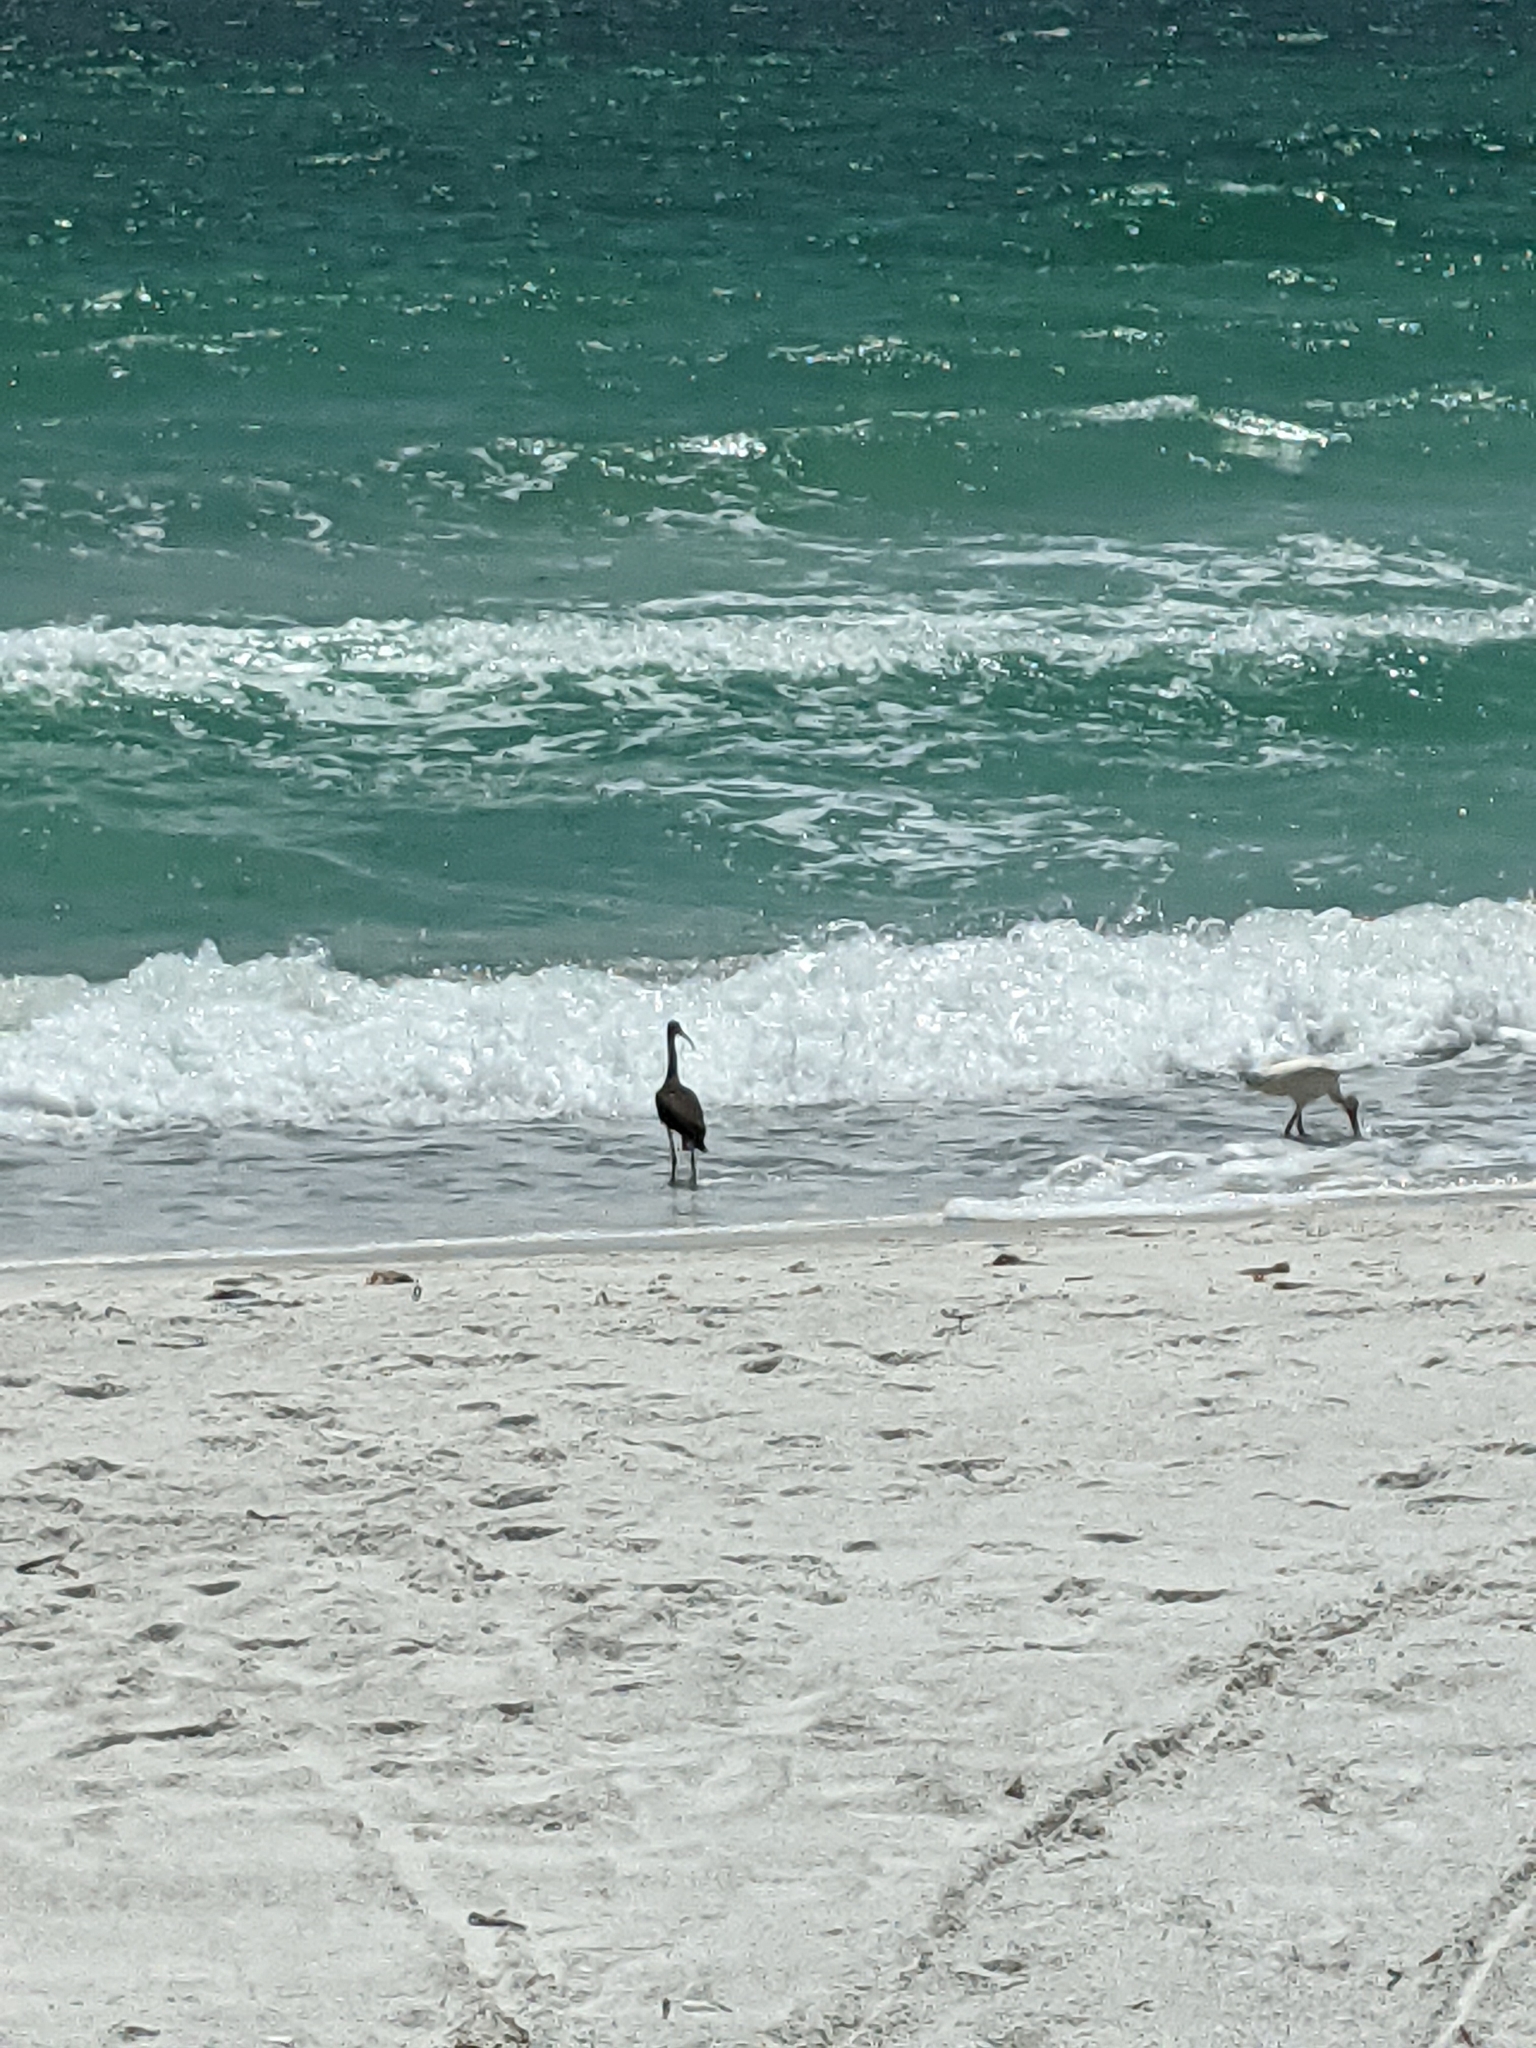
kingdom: Animalia
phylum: Chordata
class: Aves
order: Pelecaniformes
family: Threskiornithidae
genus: Eudocimus
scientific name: Eudocimus albus
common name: White ibis
